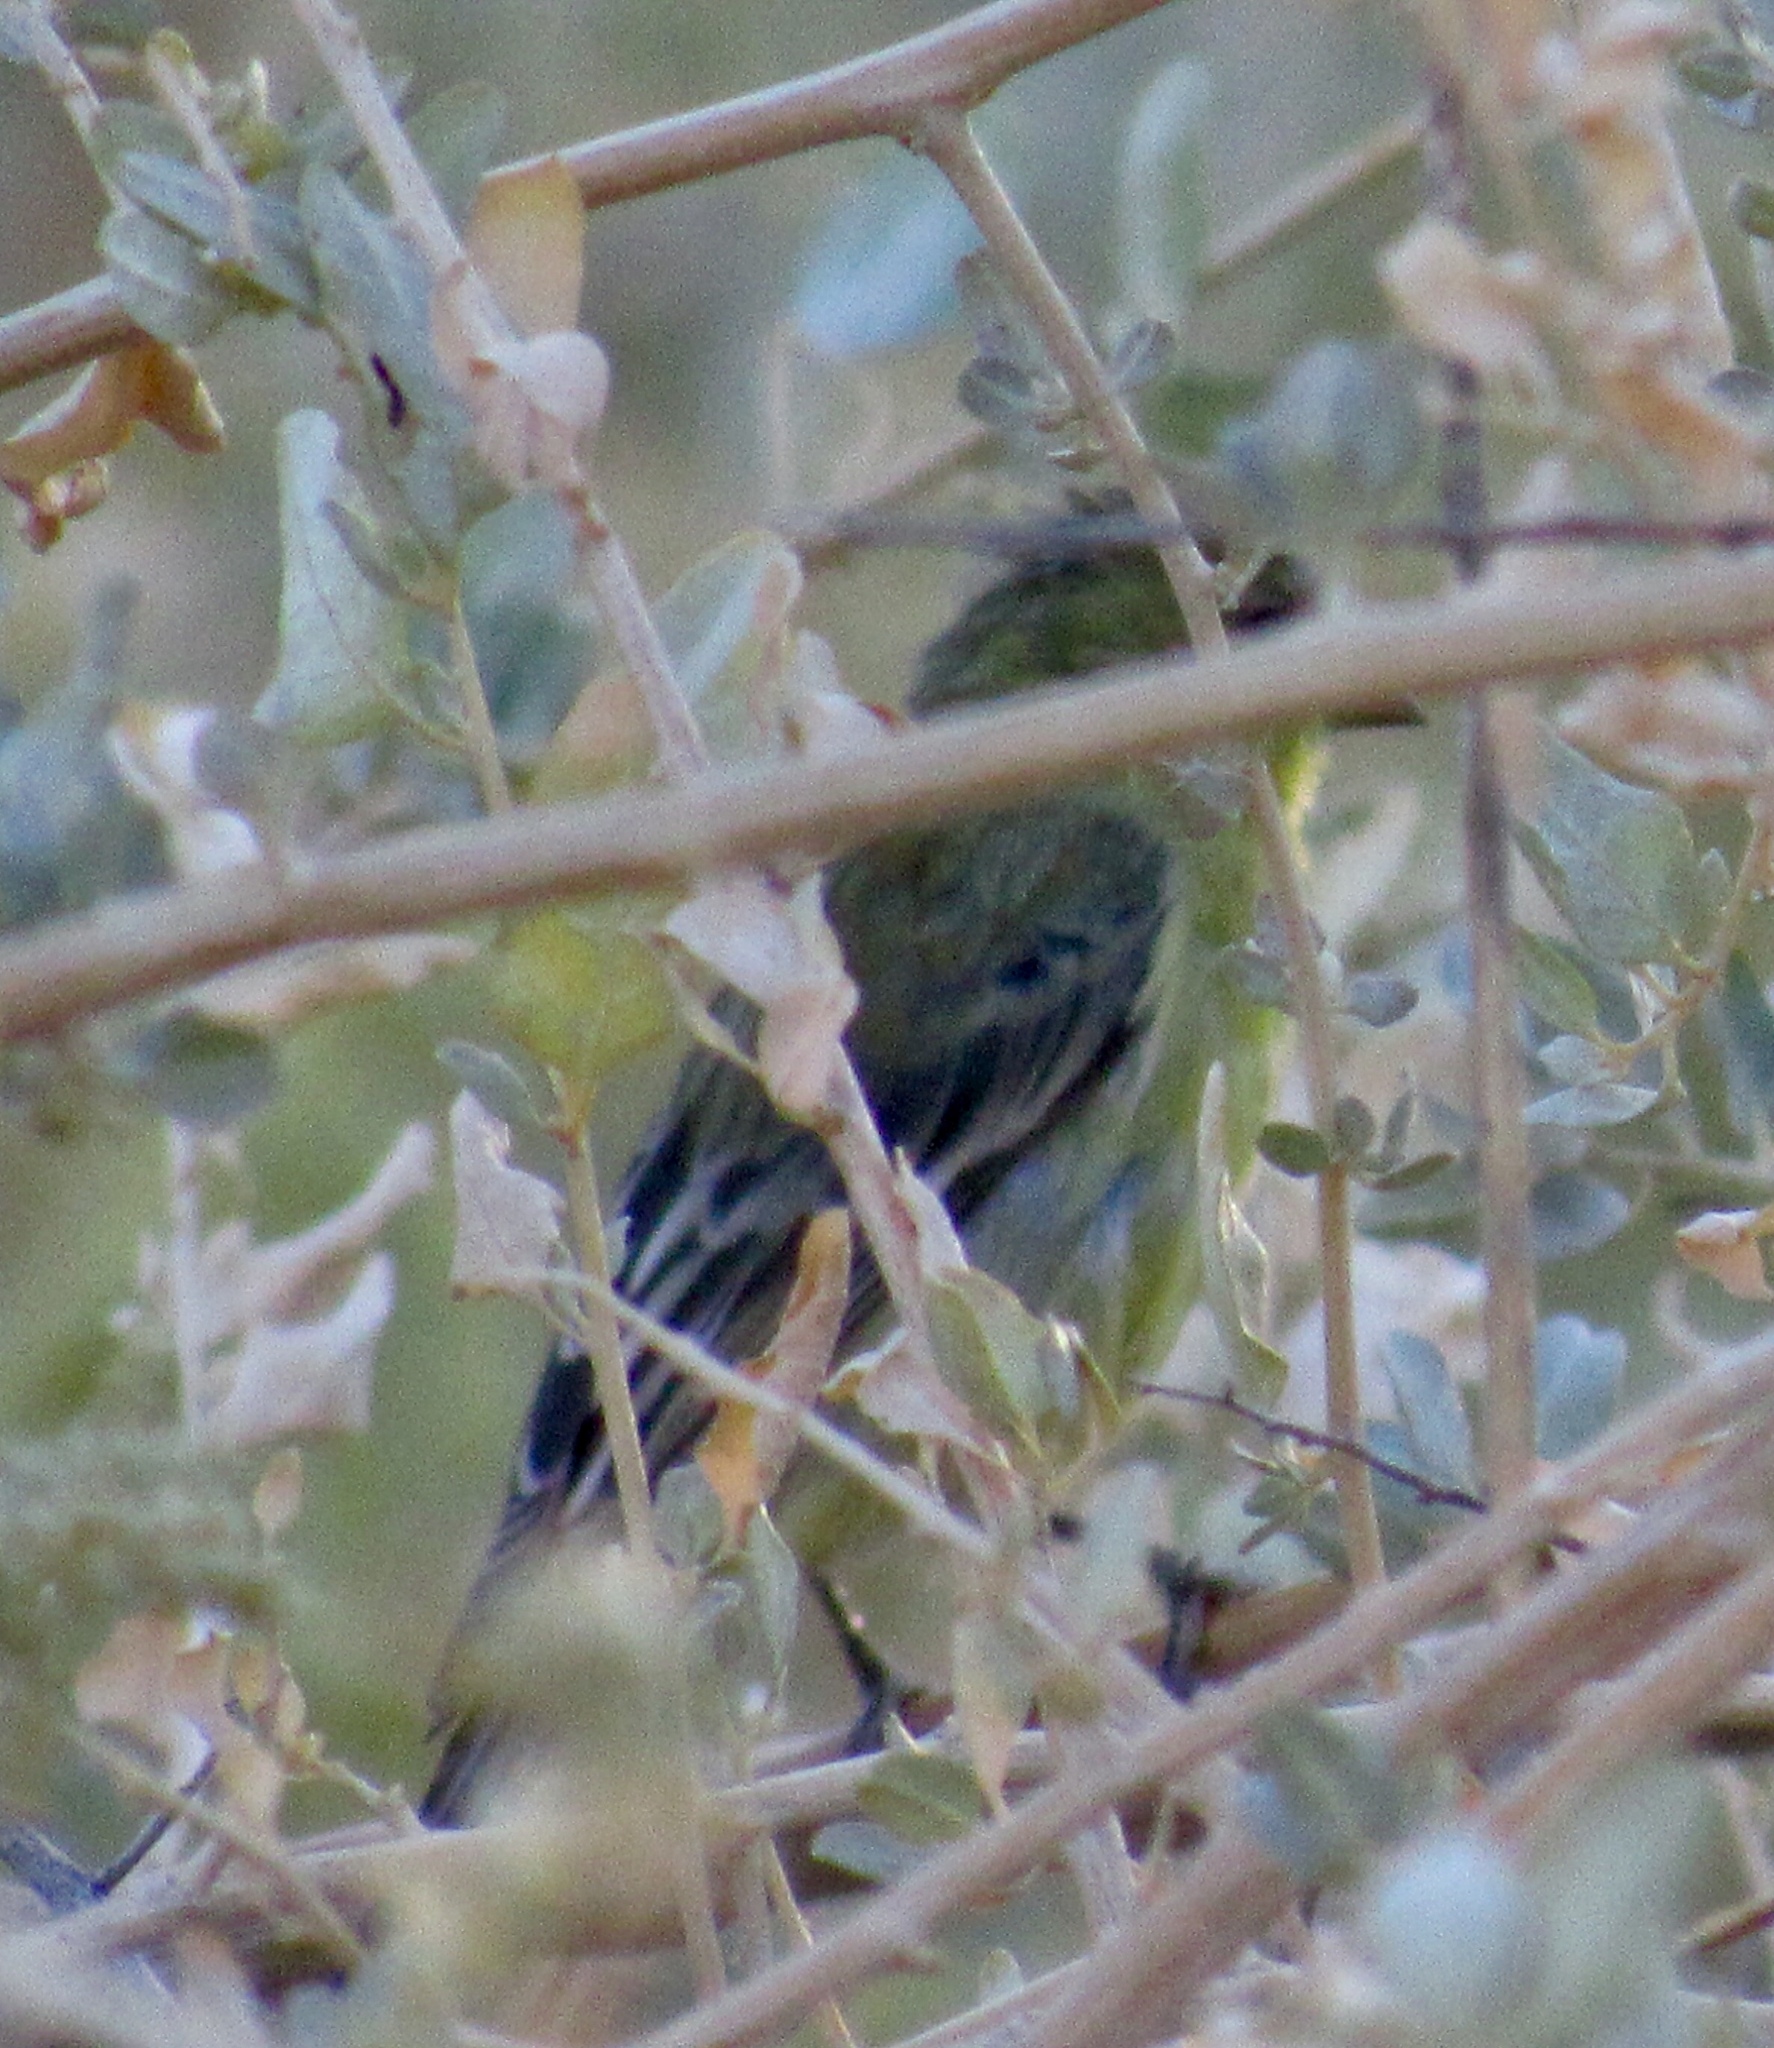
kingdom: Animalia
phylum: Chordata
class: Aves
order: Passeriformes
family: Fringillidae
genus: Spinus
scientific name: Spinus psaltria
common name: Lesser goldfinch
